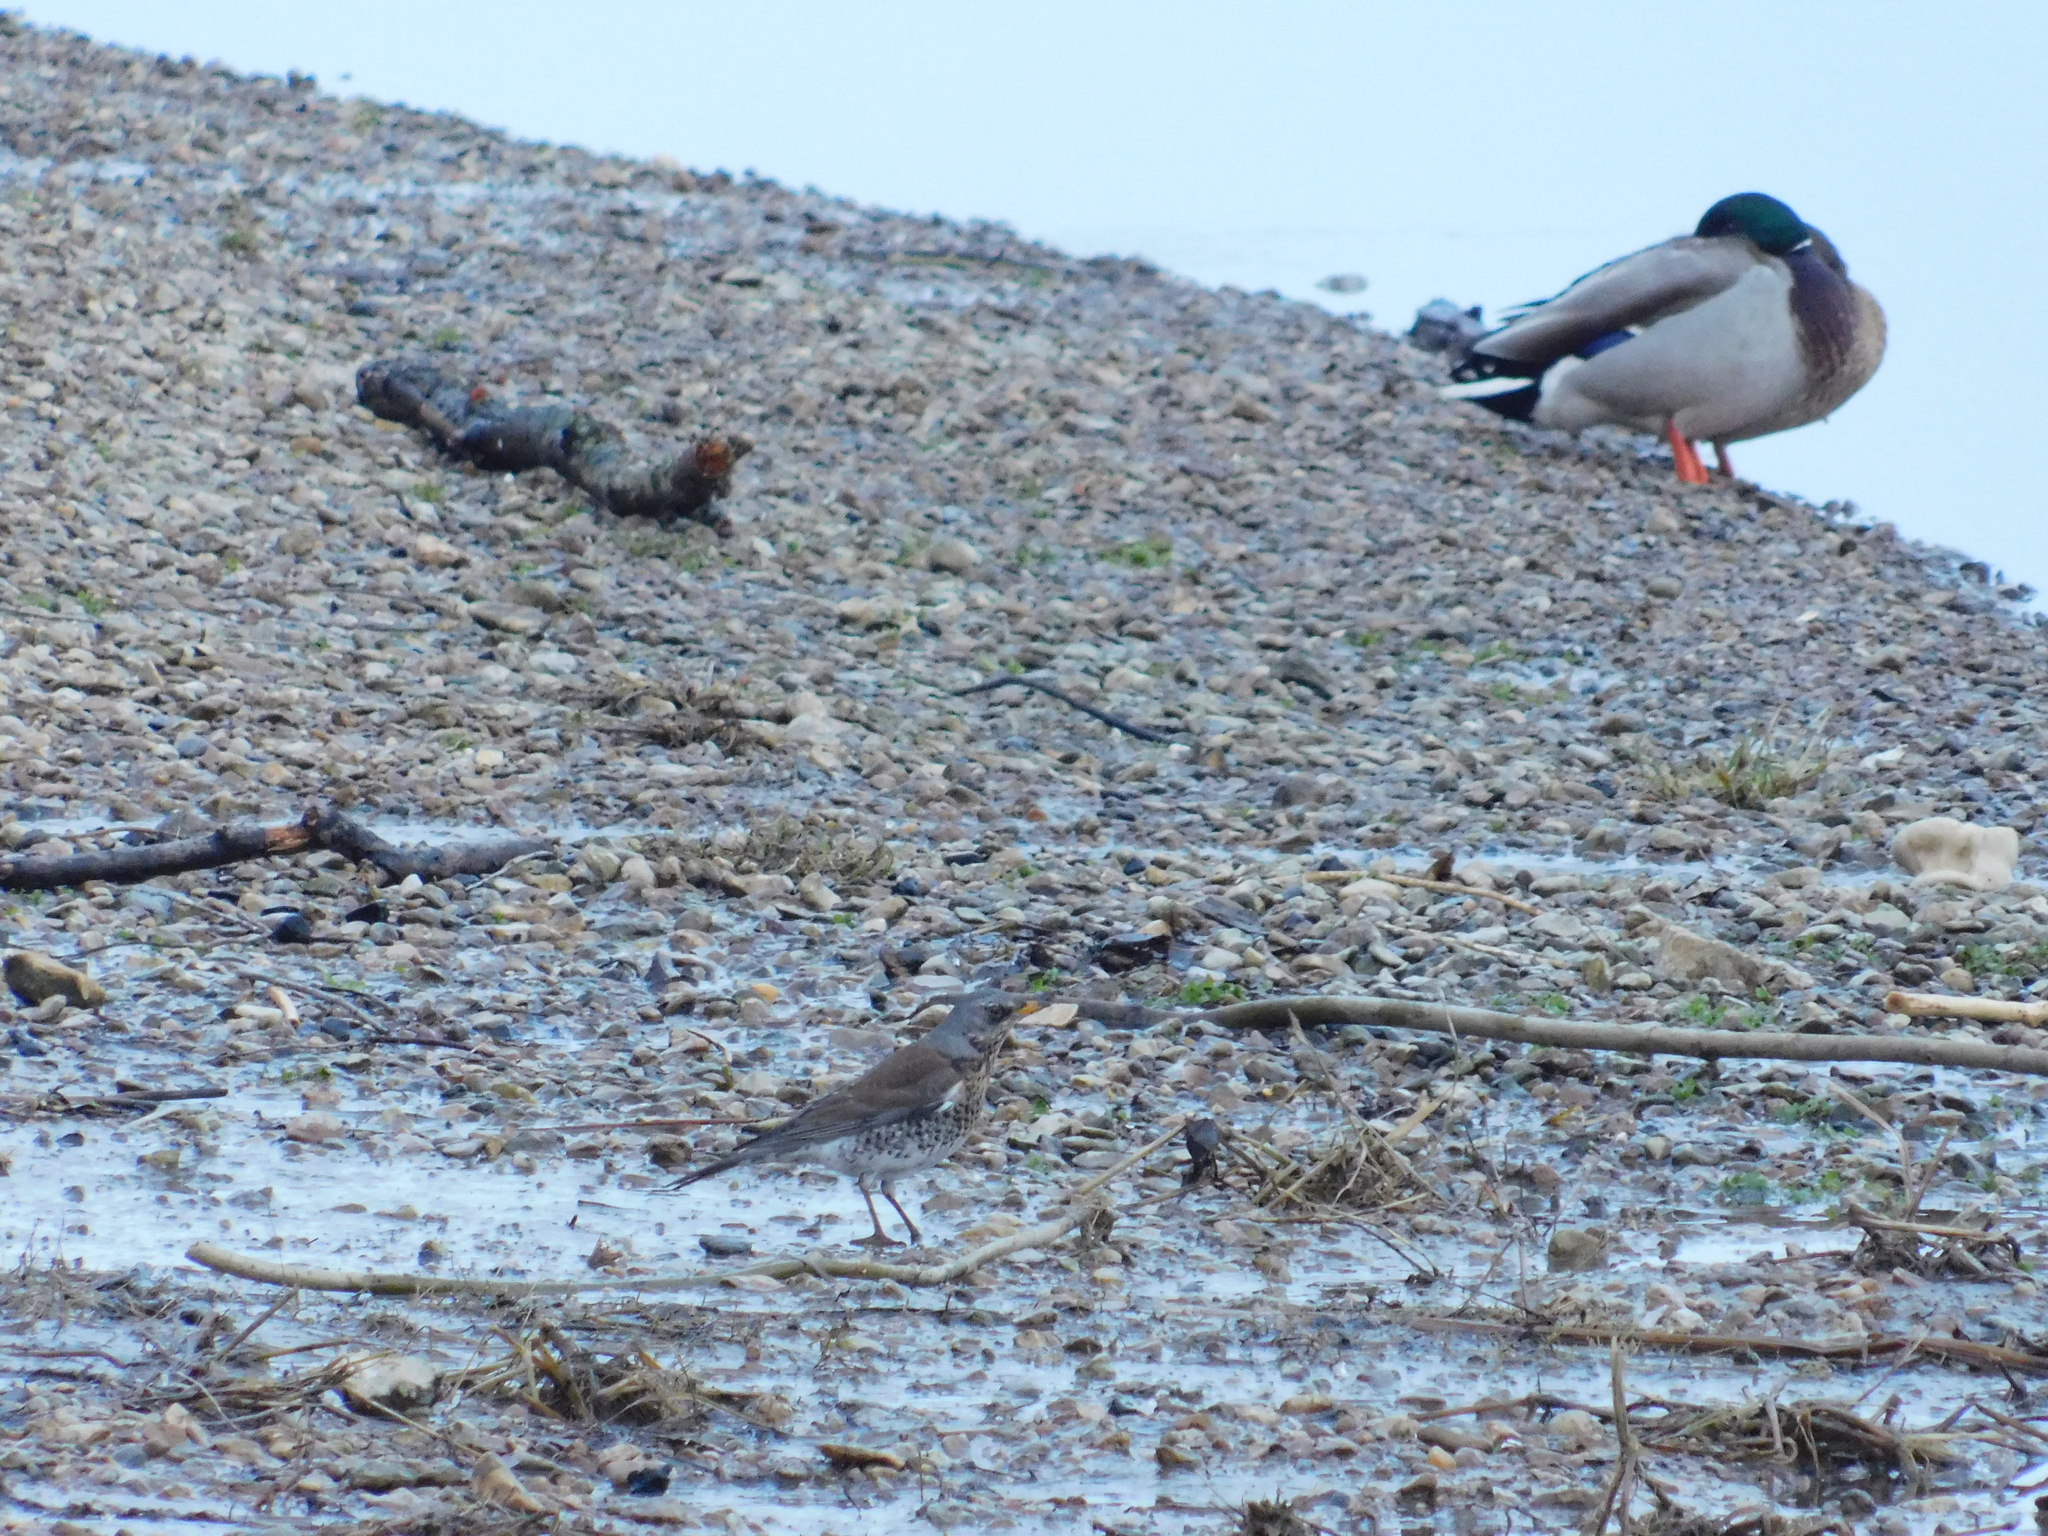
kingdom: Animalia
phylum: Chordata
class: Aves
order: Passeriformes
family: Turdidae
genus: Turdus
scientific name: Turdus pilaris
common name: Fieldfare
